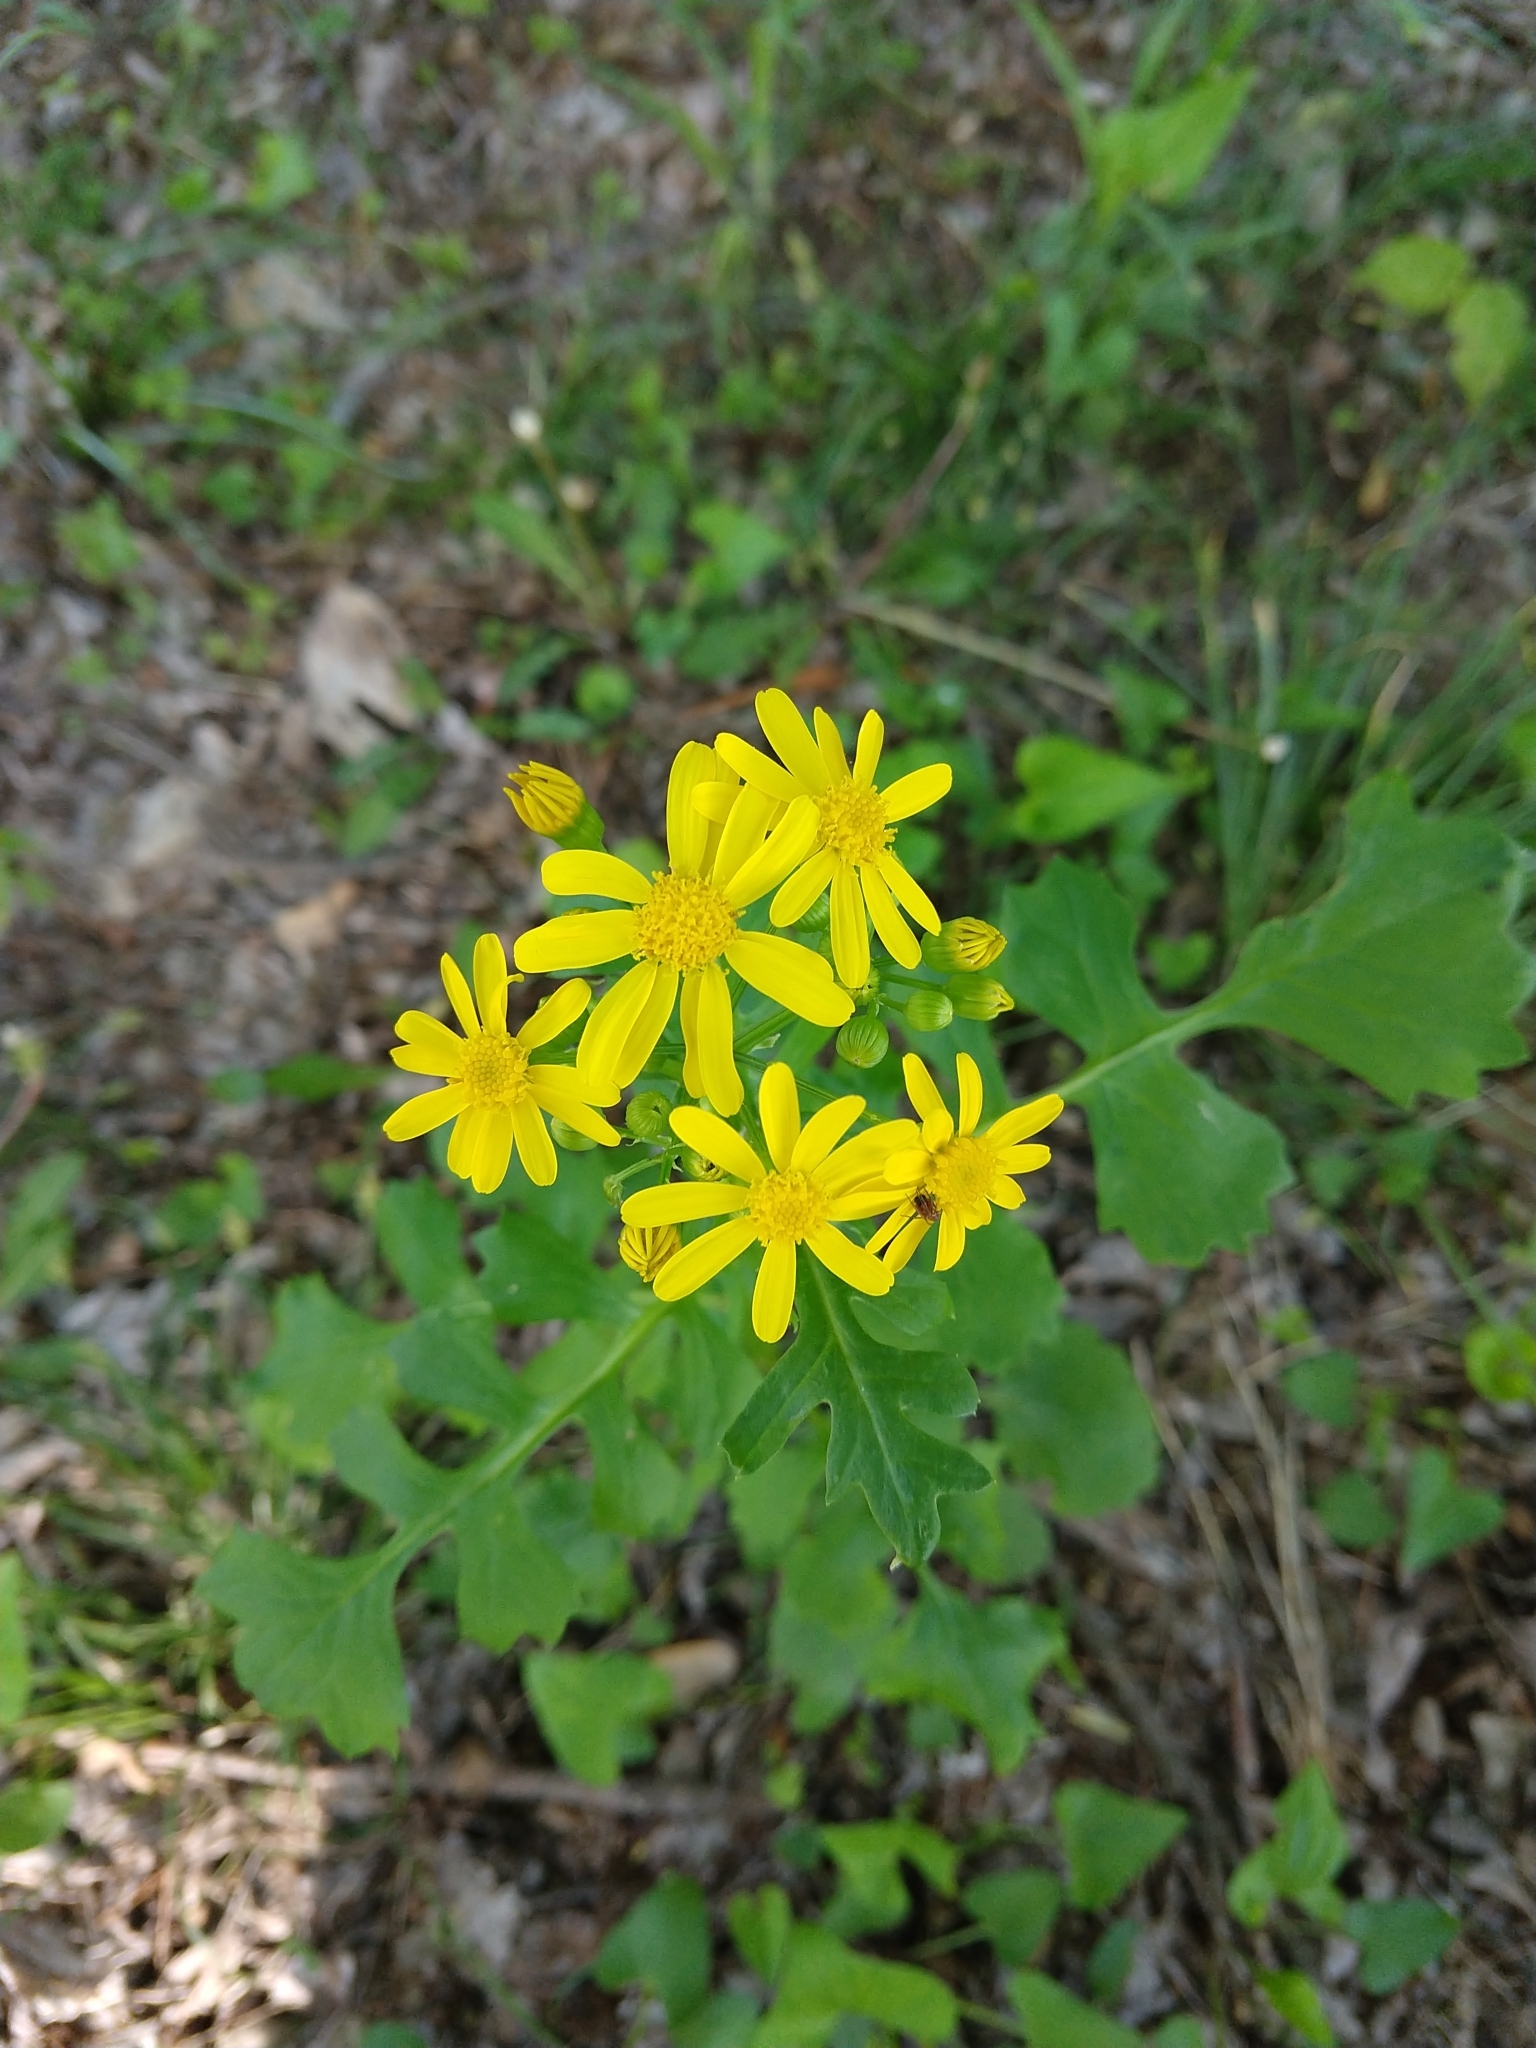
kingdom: Plantae
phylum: Tracheophyta
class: Magnoliopsida
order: Asterales
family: Asteraceae
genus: Packera
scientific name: Packera glabella
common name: Butterweed
